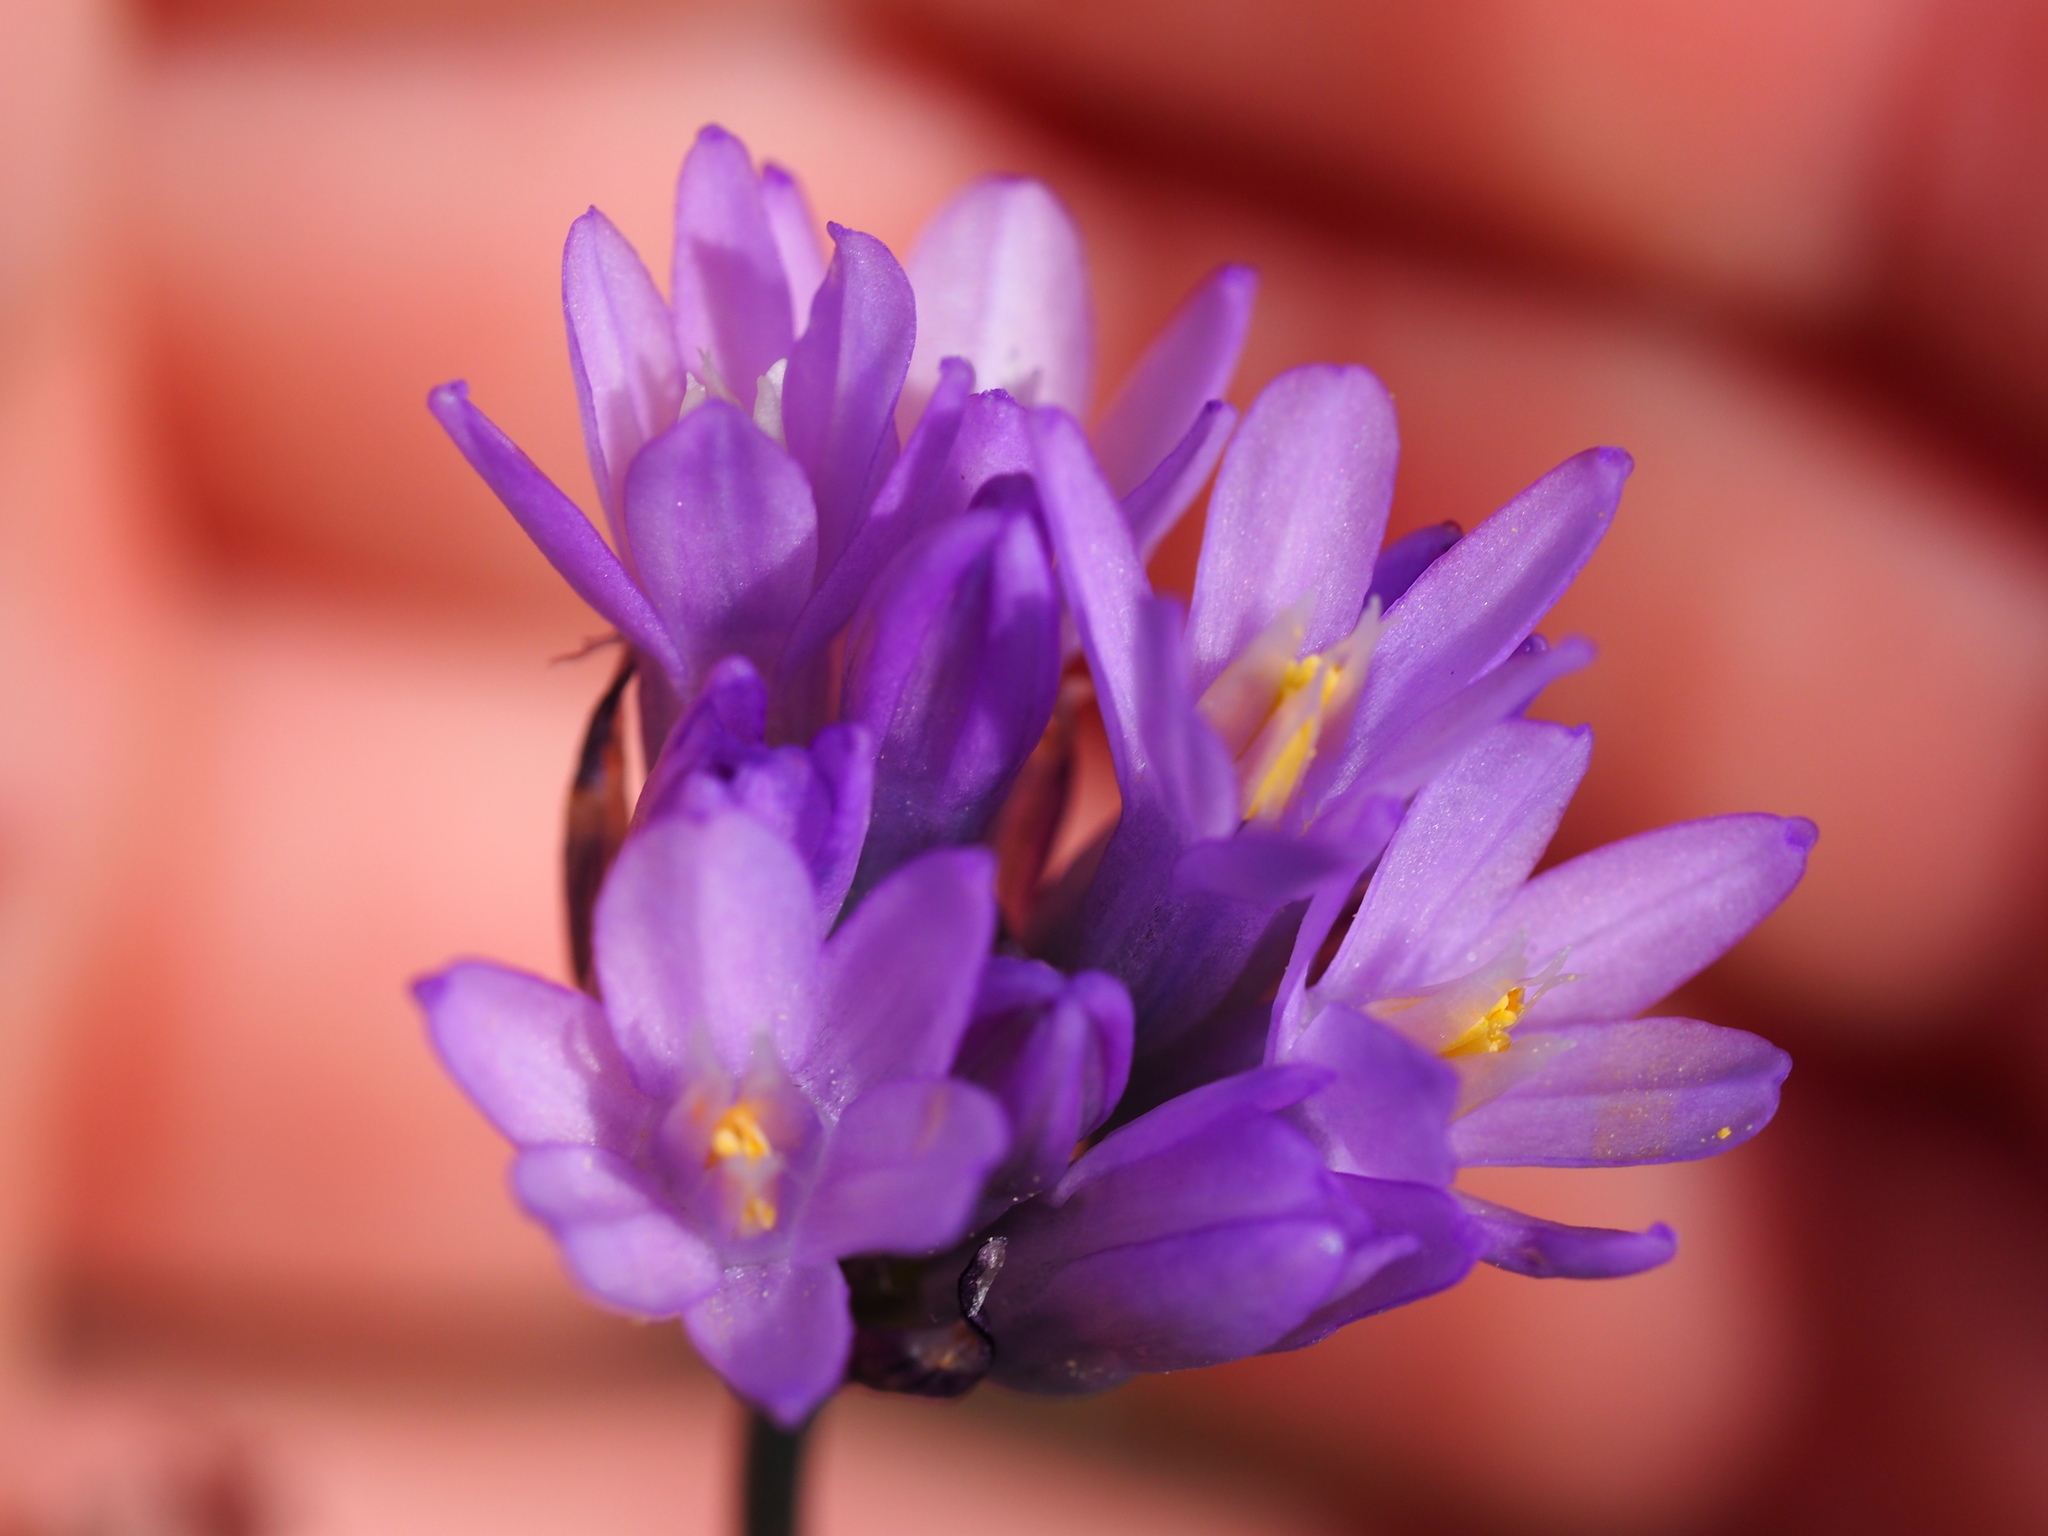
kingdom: Plantae
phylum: Tracheophyta
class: Liliopsida
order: Asparagales
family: Asparagaceae
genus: Dipterostemon
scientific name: Dipterostemon capitatus
